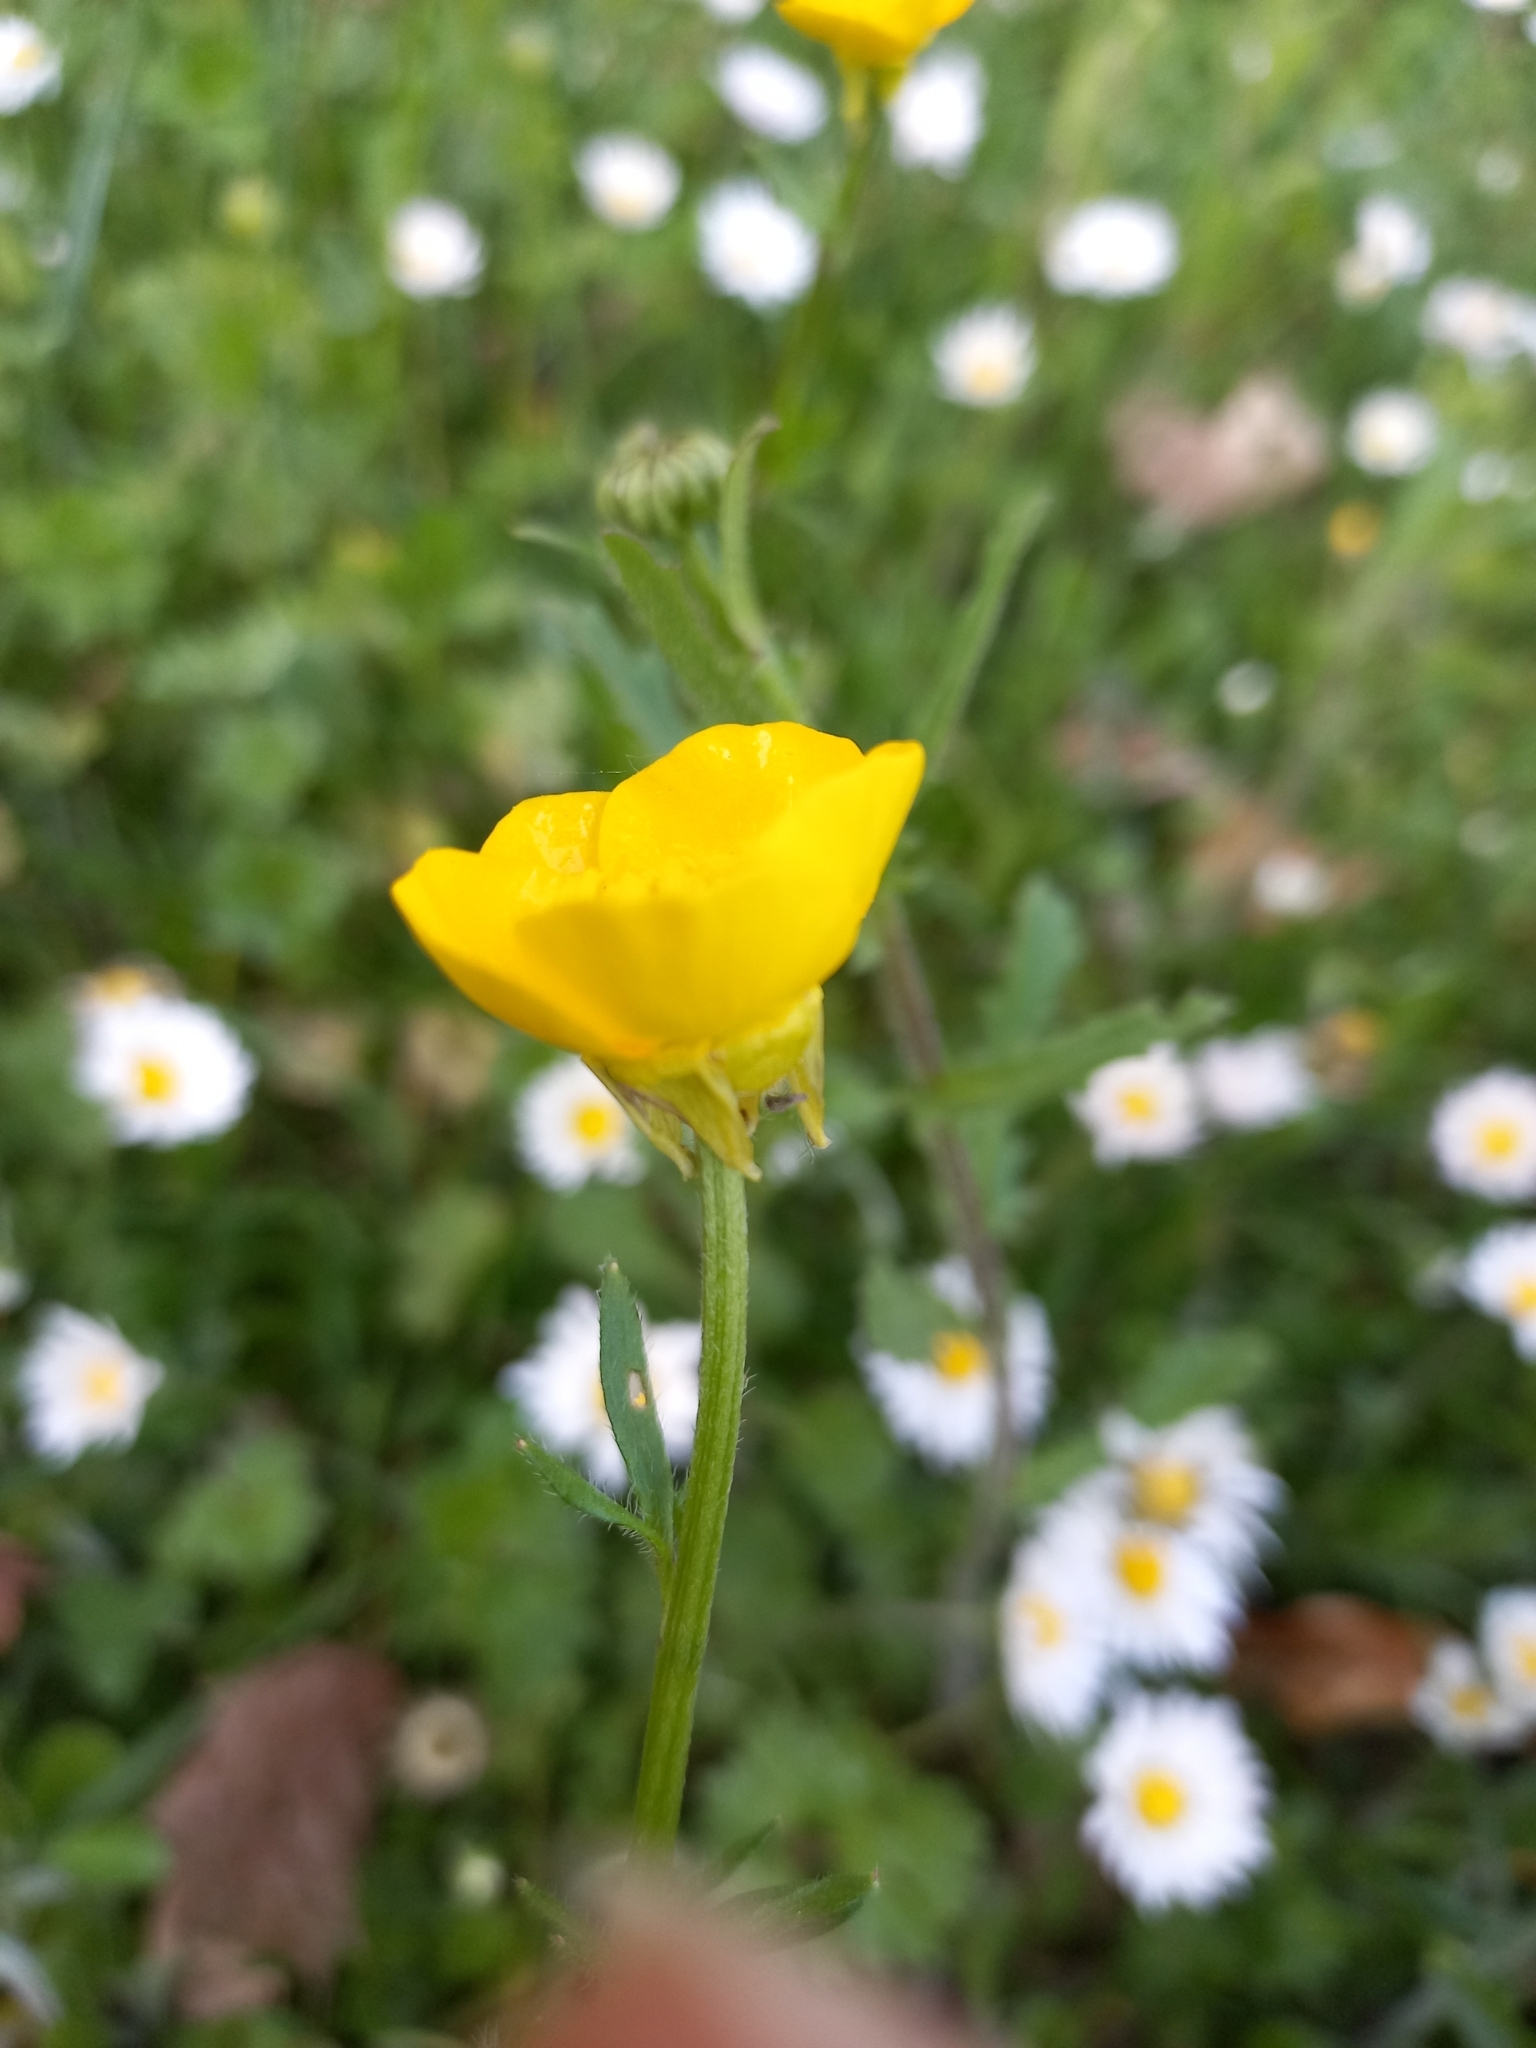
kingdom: Plantae
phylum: Tracheophyta
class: Magnoliopsida
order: Ranunculales
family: Ranunculaceae
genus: Ranunculus
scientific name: Ranunculus bulbosus
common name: Bulbous buttercup
